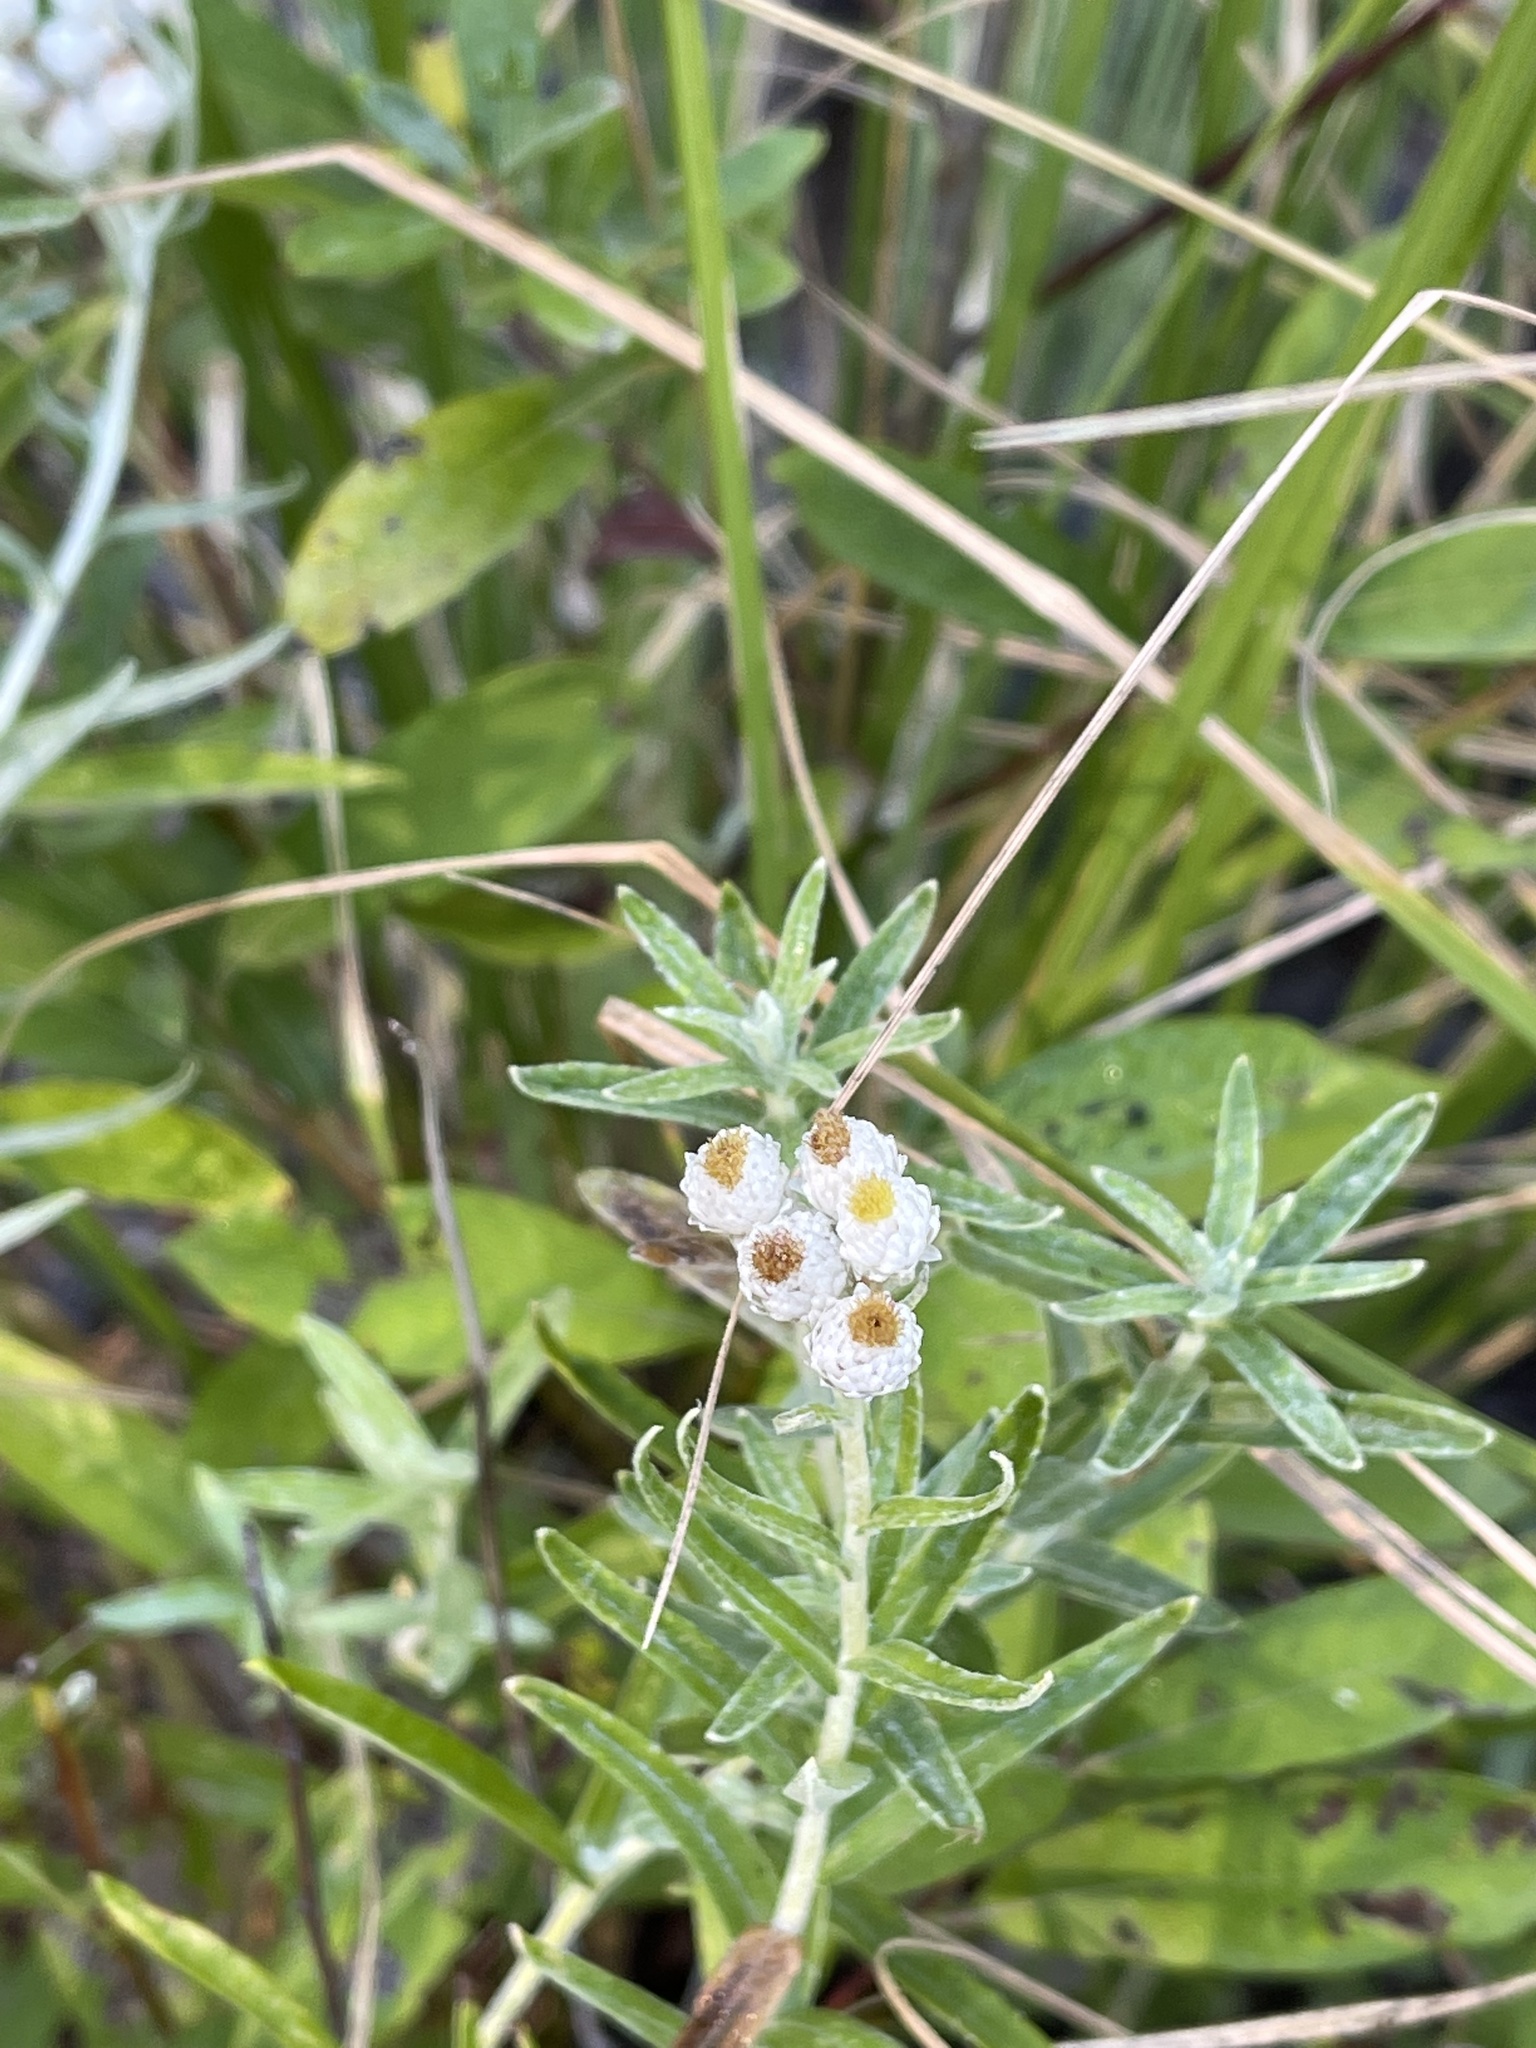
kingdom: Plantae
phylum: Tracheophyta
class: Magnoliopsida
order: Asterales
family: Asteraceae
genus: Anaphalis
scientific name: Anaphalis margaritacea
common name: Pearly everlasting
